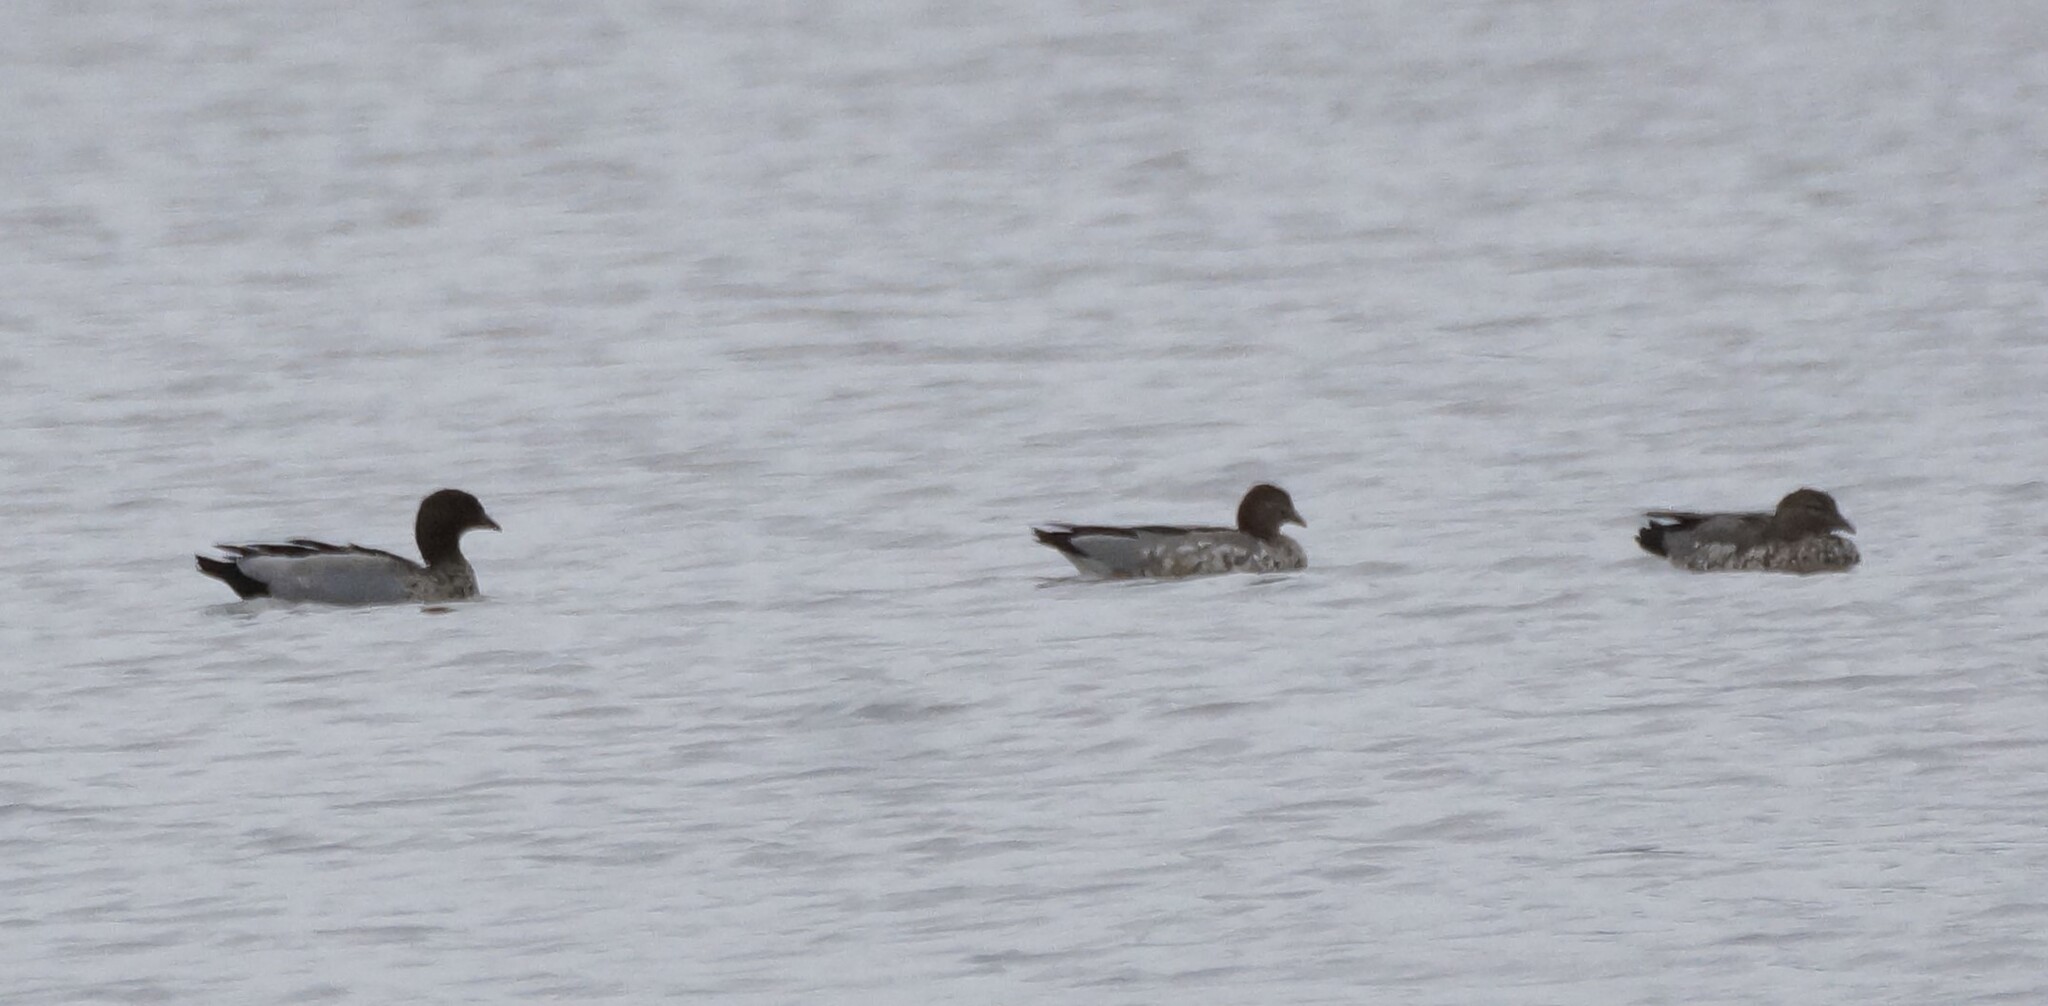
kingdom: Animalia
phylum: Chordata
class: Aves
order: Anseriformes
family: Anatidae
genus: Chenonetta
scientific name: Chenonetta jubata
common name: Maned duck
